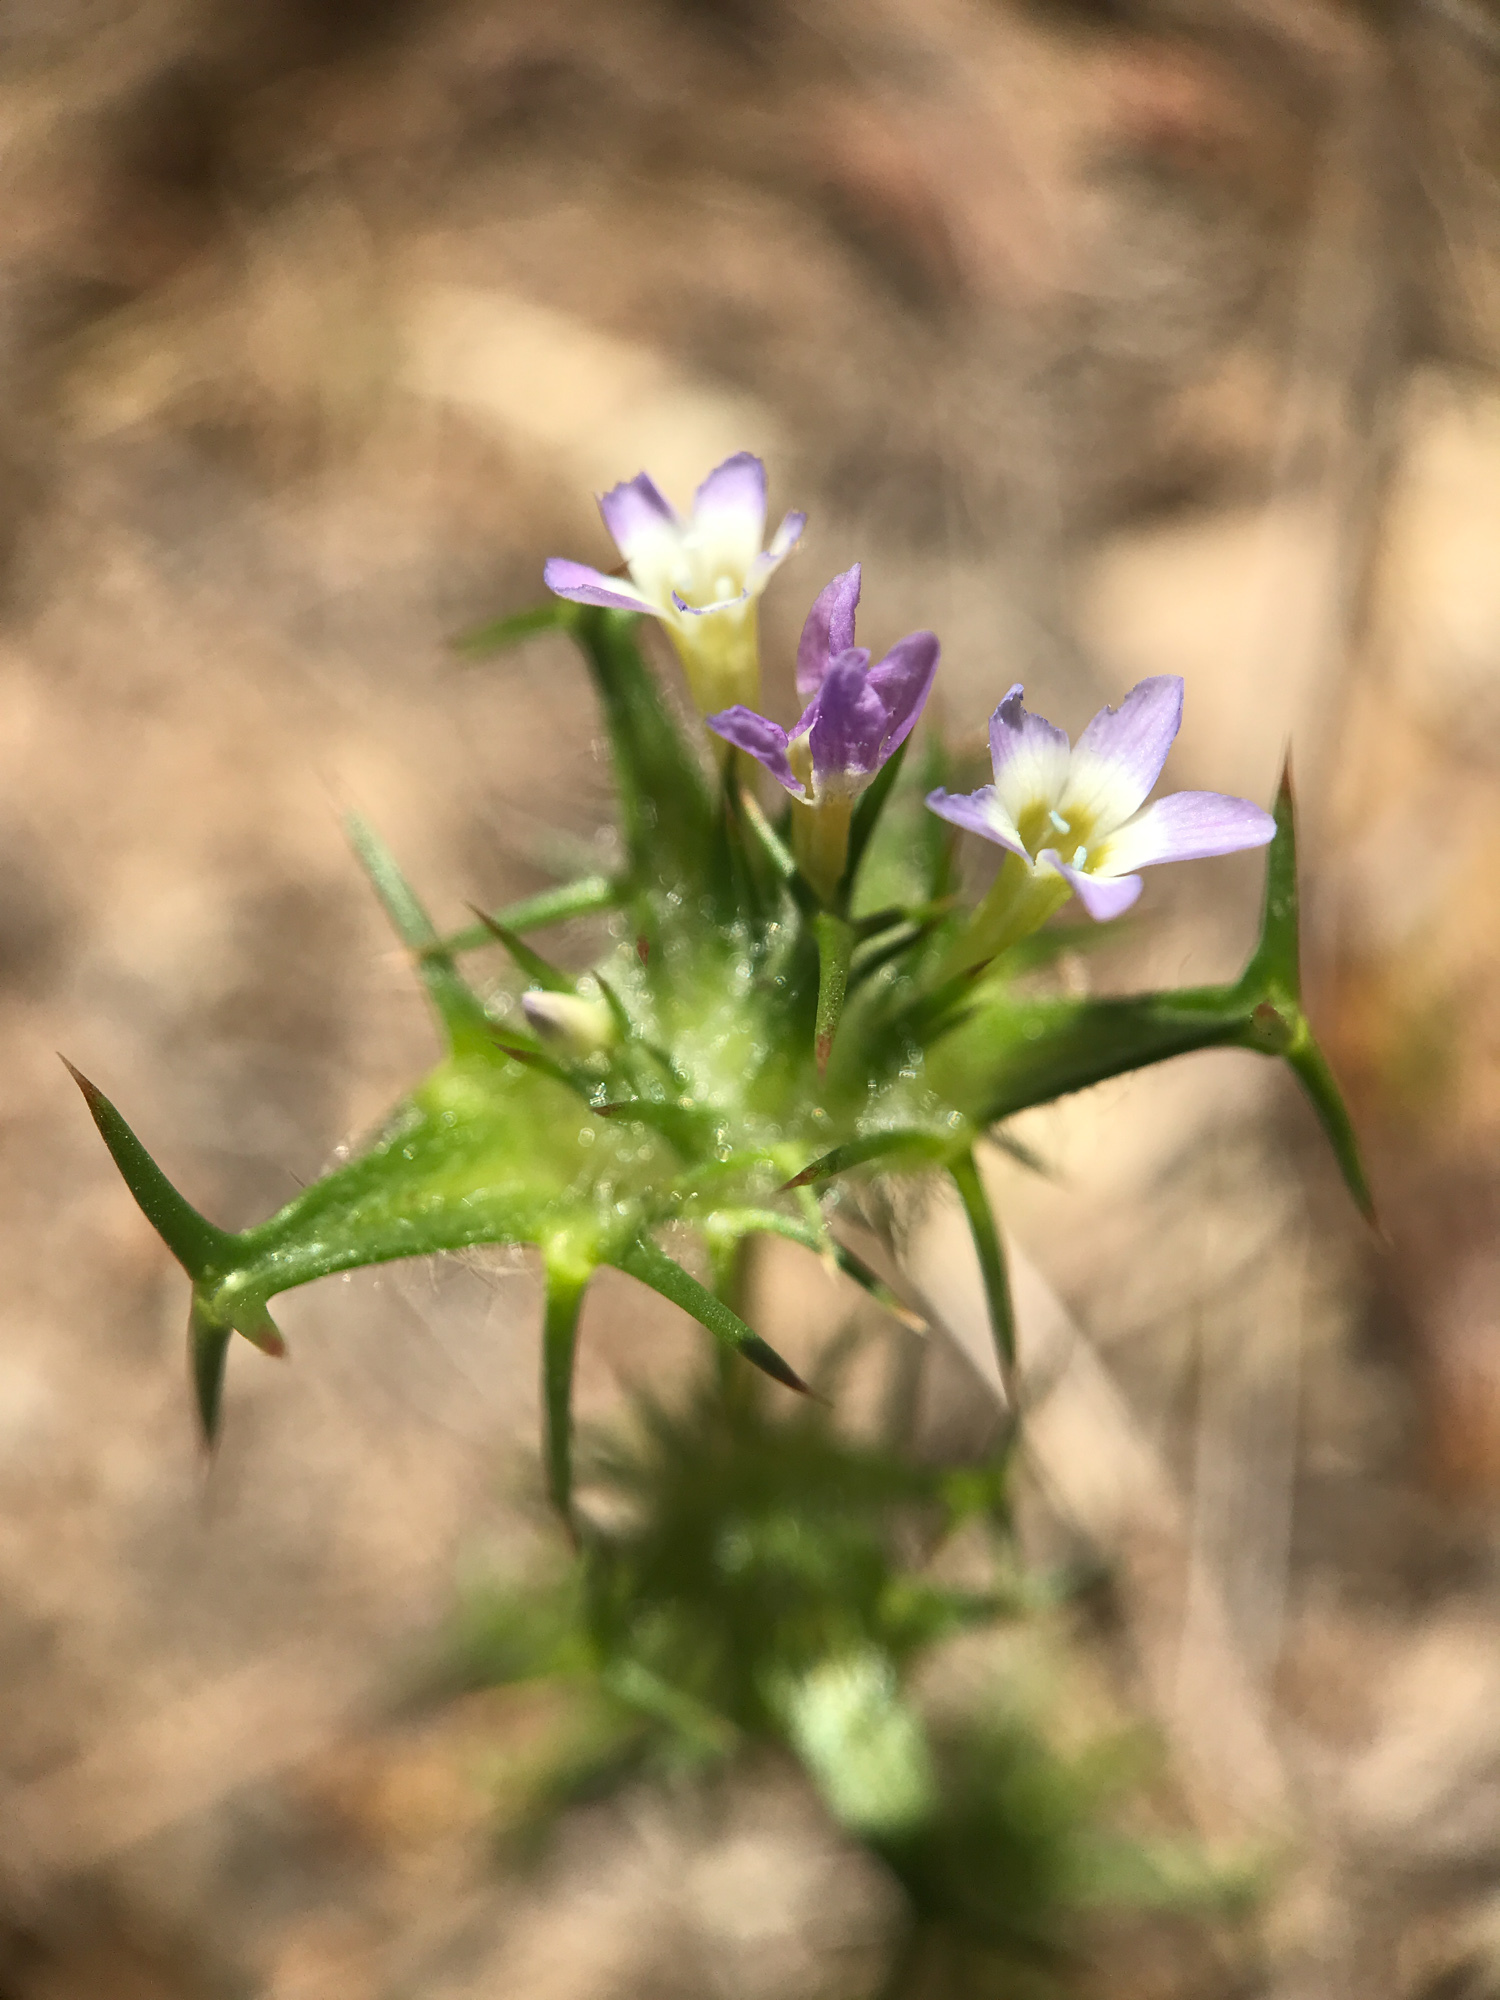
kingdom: Plantae
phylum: Tracheophyta
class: Magnoliopsida
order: Ericales
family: Polemoniaceae
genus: Navarretia
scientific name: Navarretia hamata
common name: Hooked navarretia
